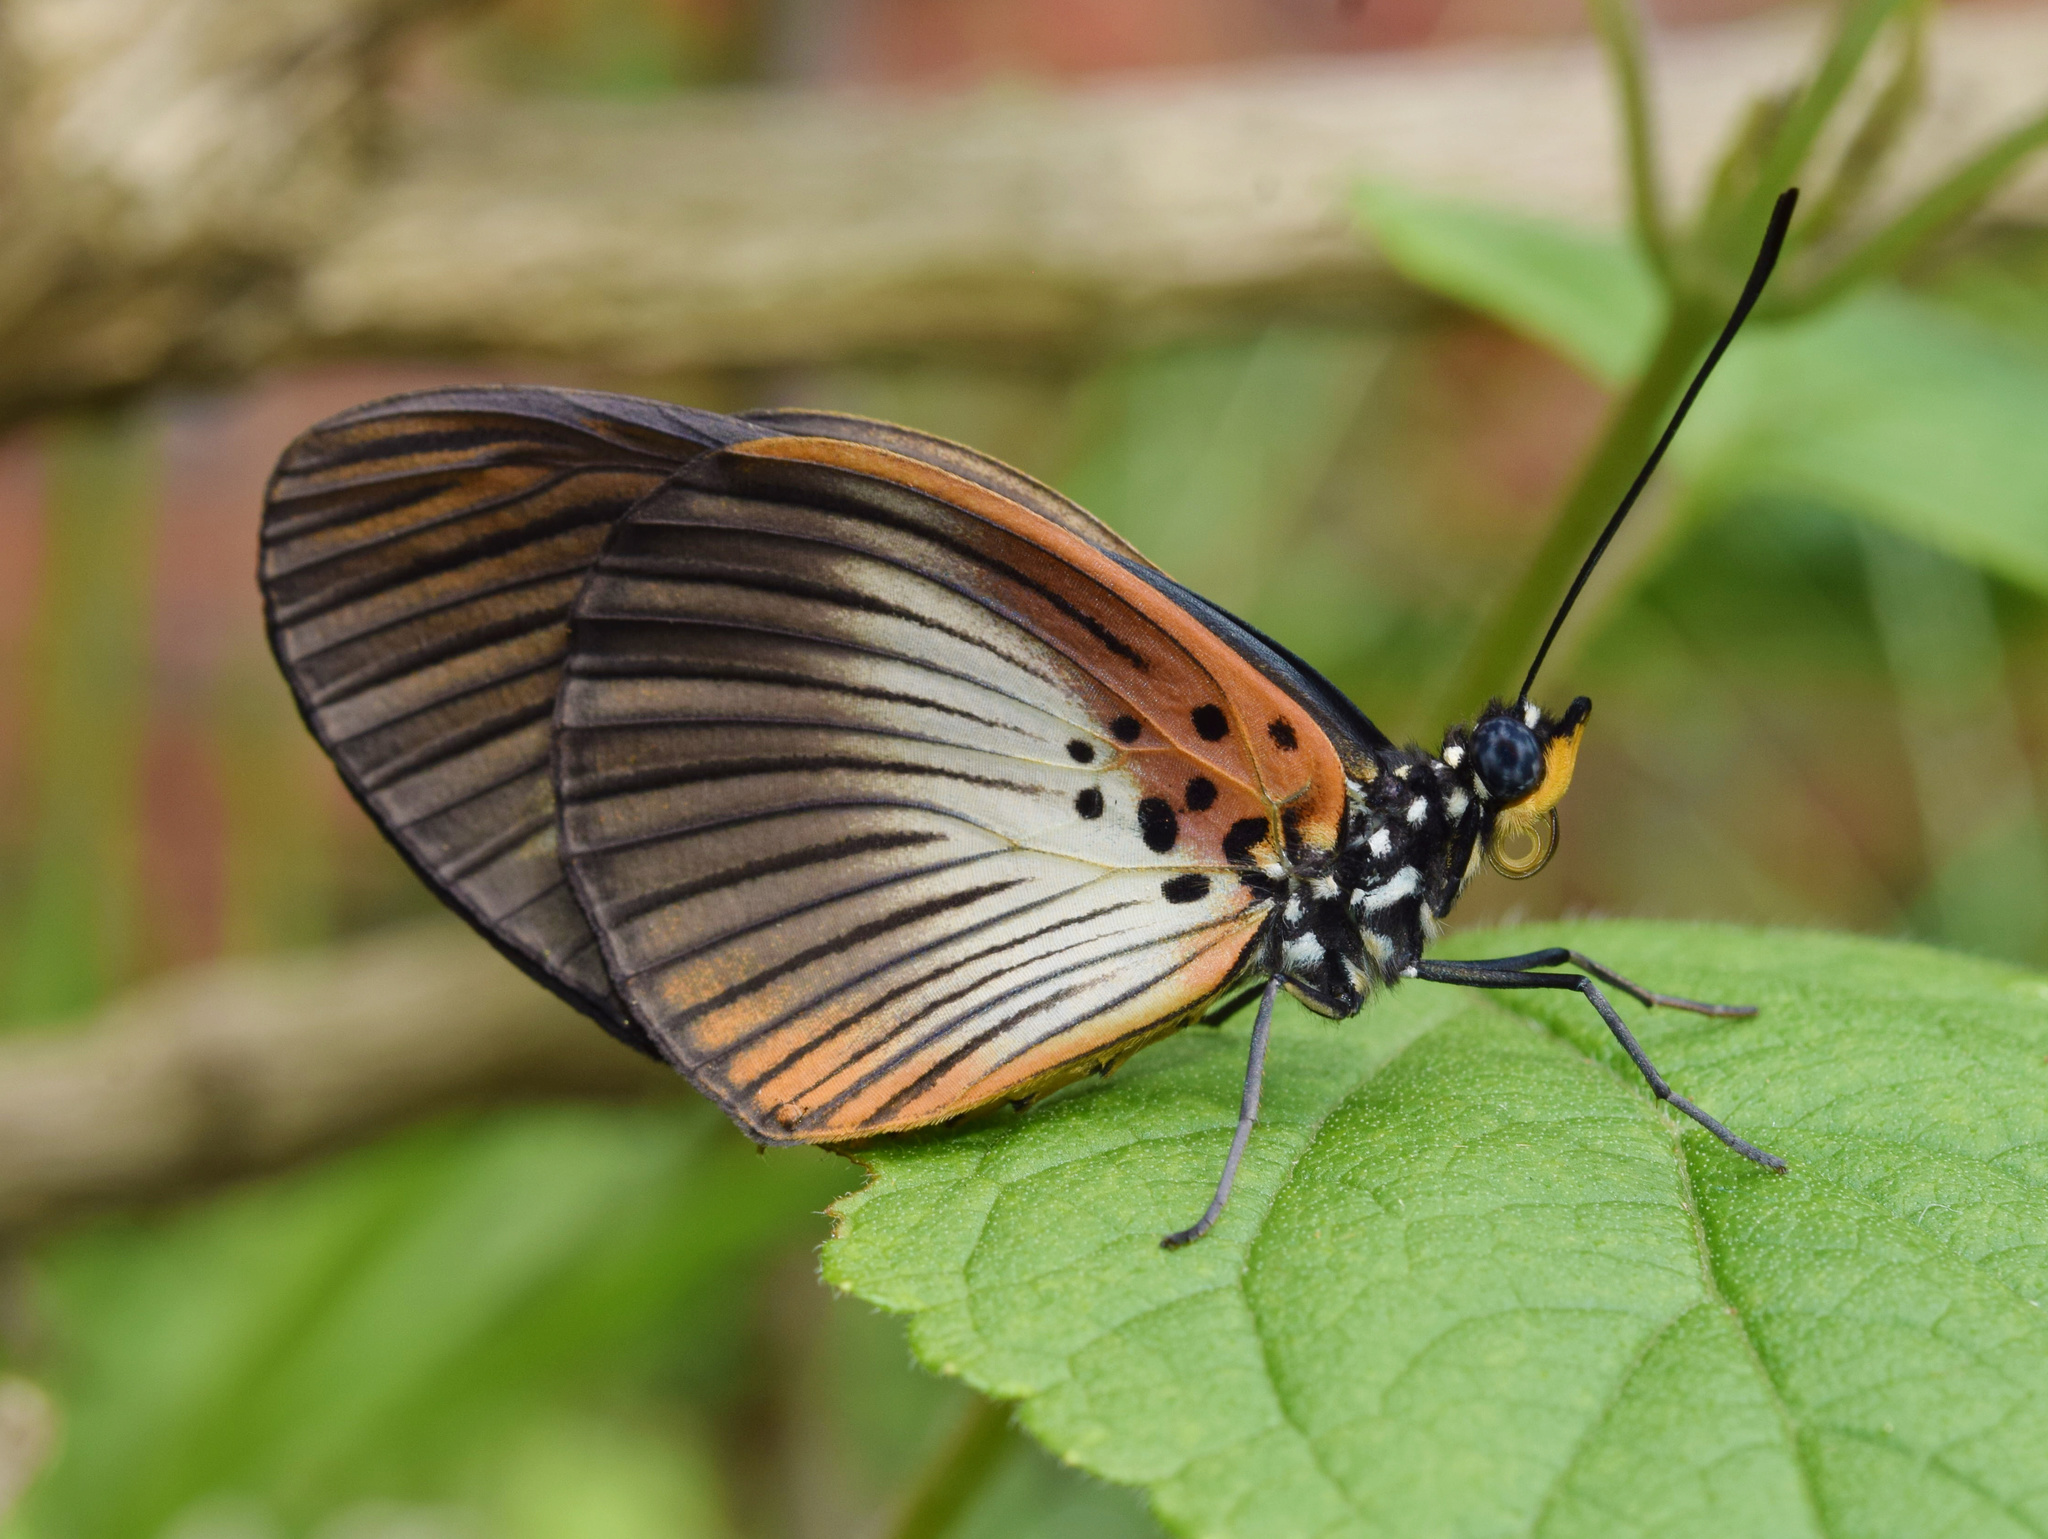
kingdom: Animalia
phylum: Arthropoda
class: Insecta
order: Lepidoptera
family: Nymphalidae
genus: Chloropoea
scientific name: Chloropoea eurytus
